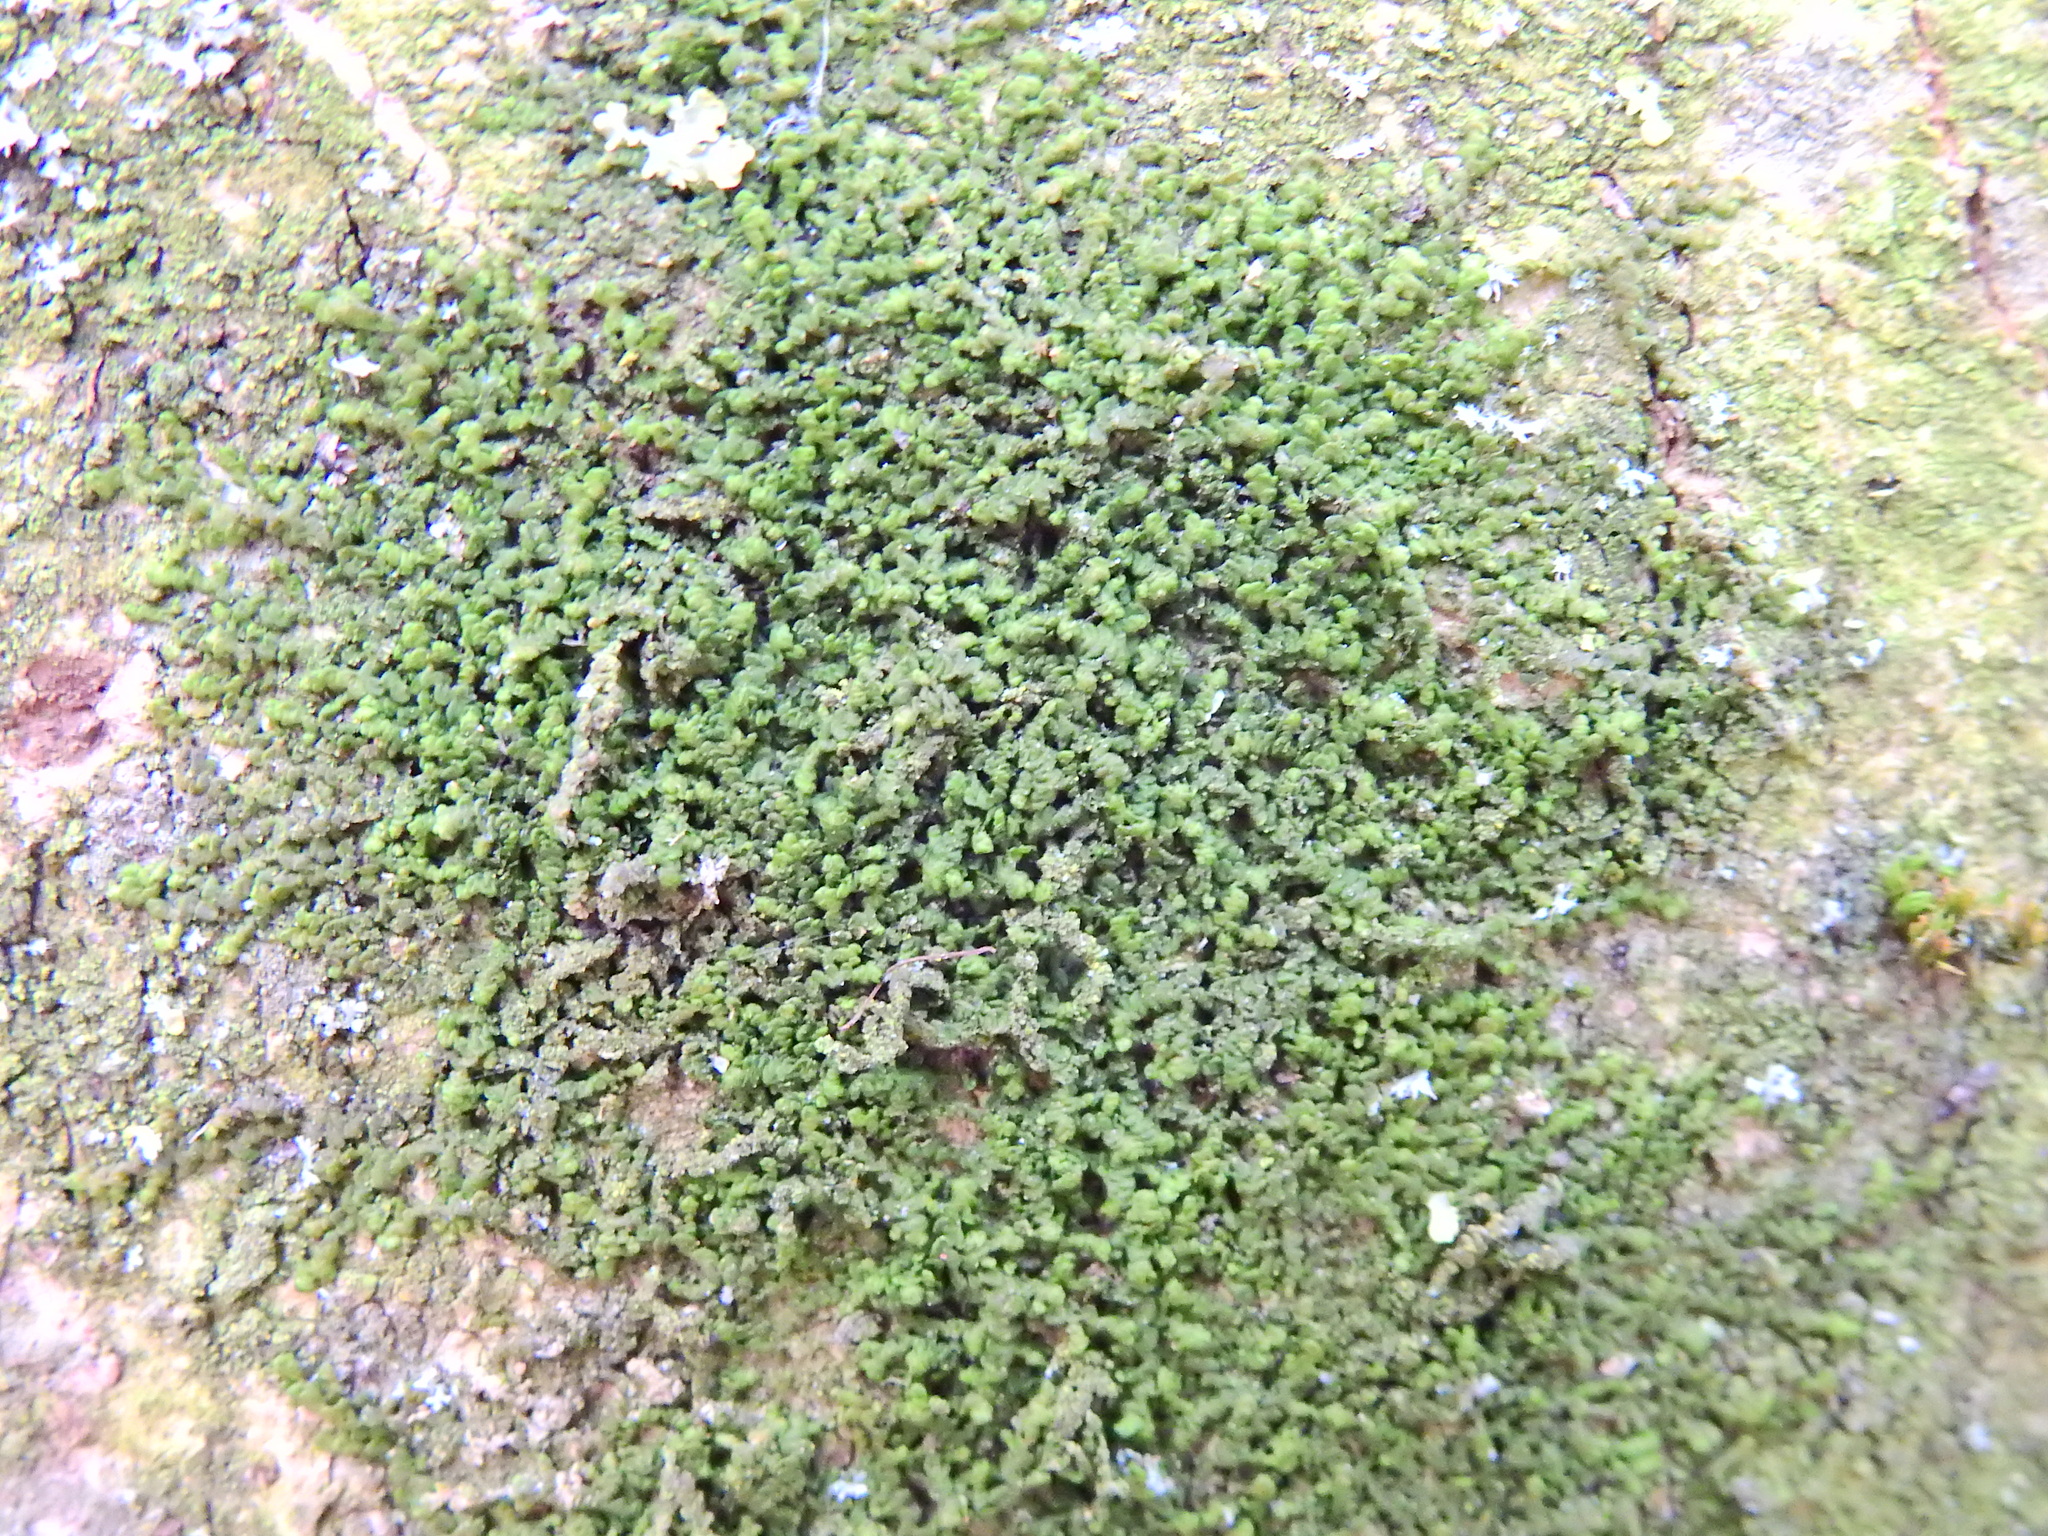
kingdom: Plantae
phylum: Marchantiophyta
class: Jungermanniopsida
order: Porellales
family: Frullaniaceae
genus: Frullania
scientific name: Frullania dilatata
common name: Dilated scalewort
